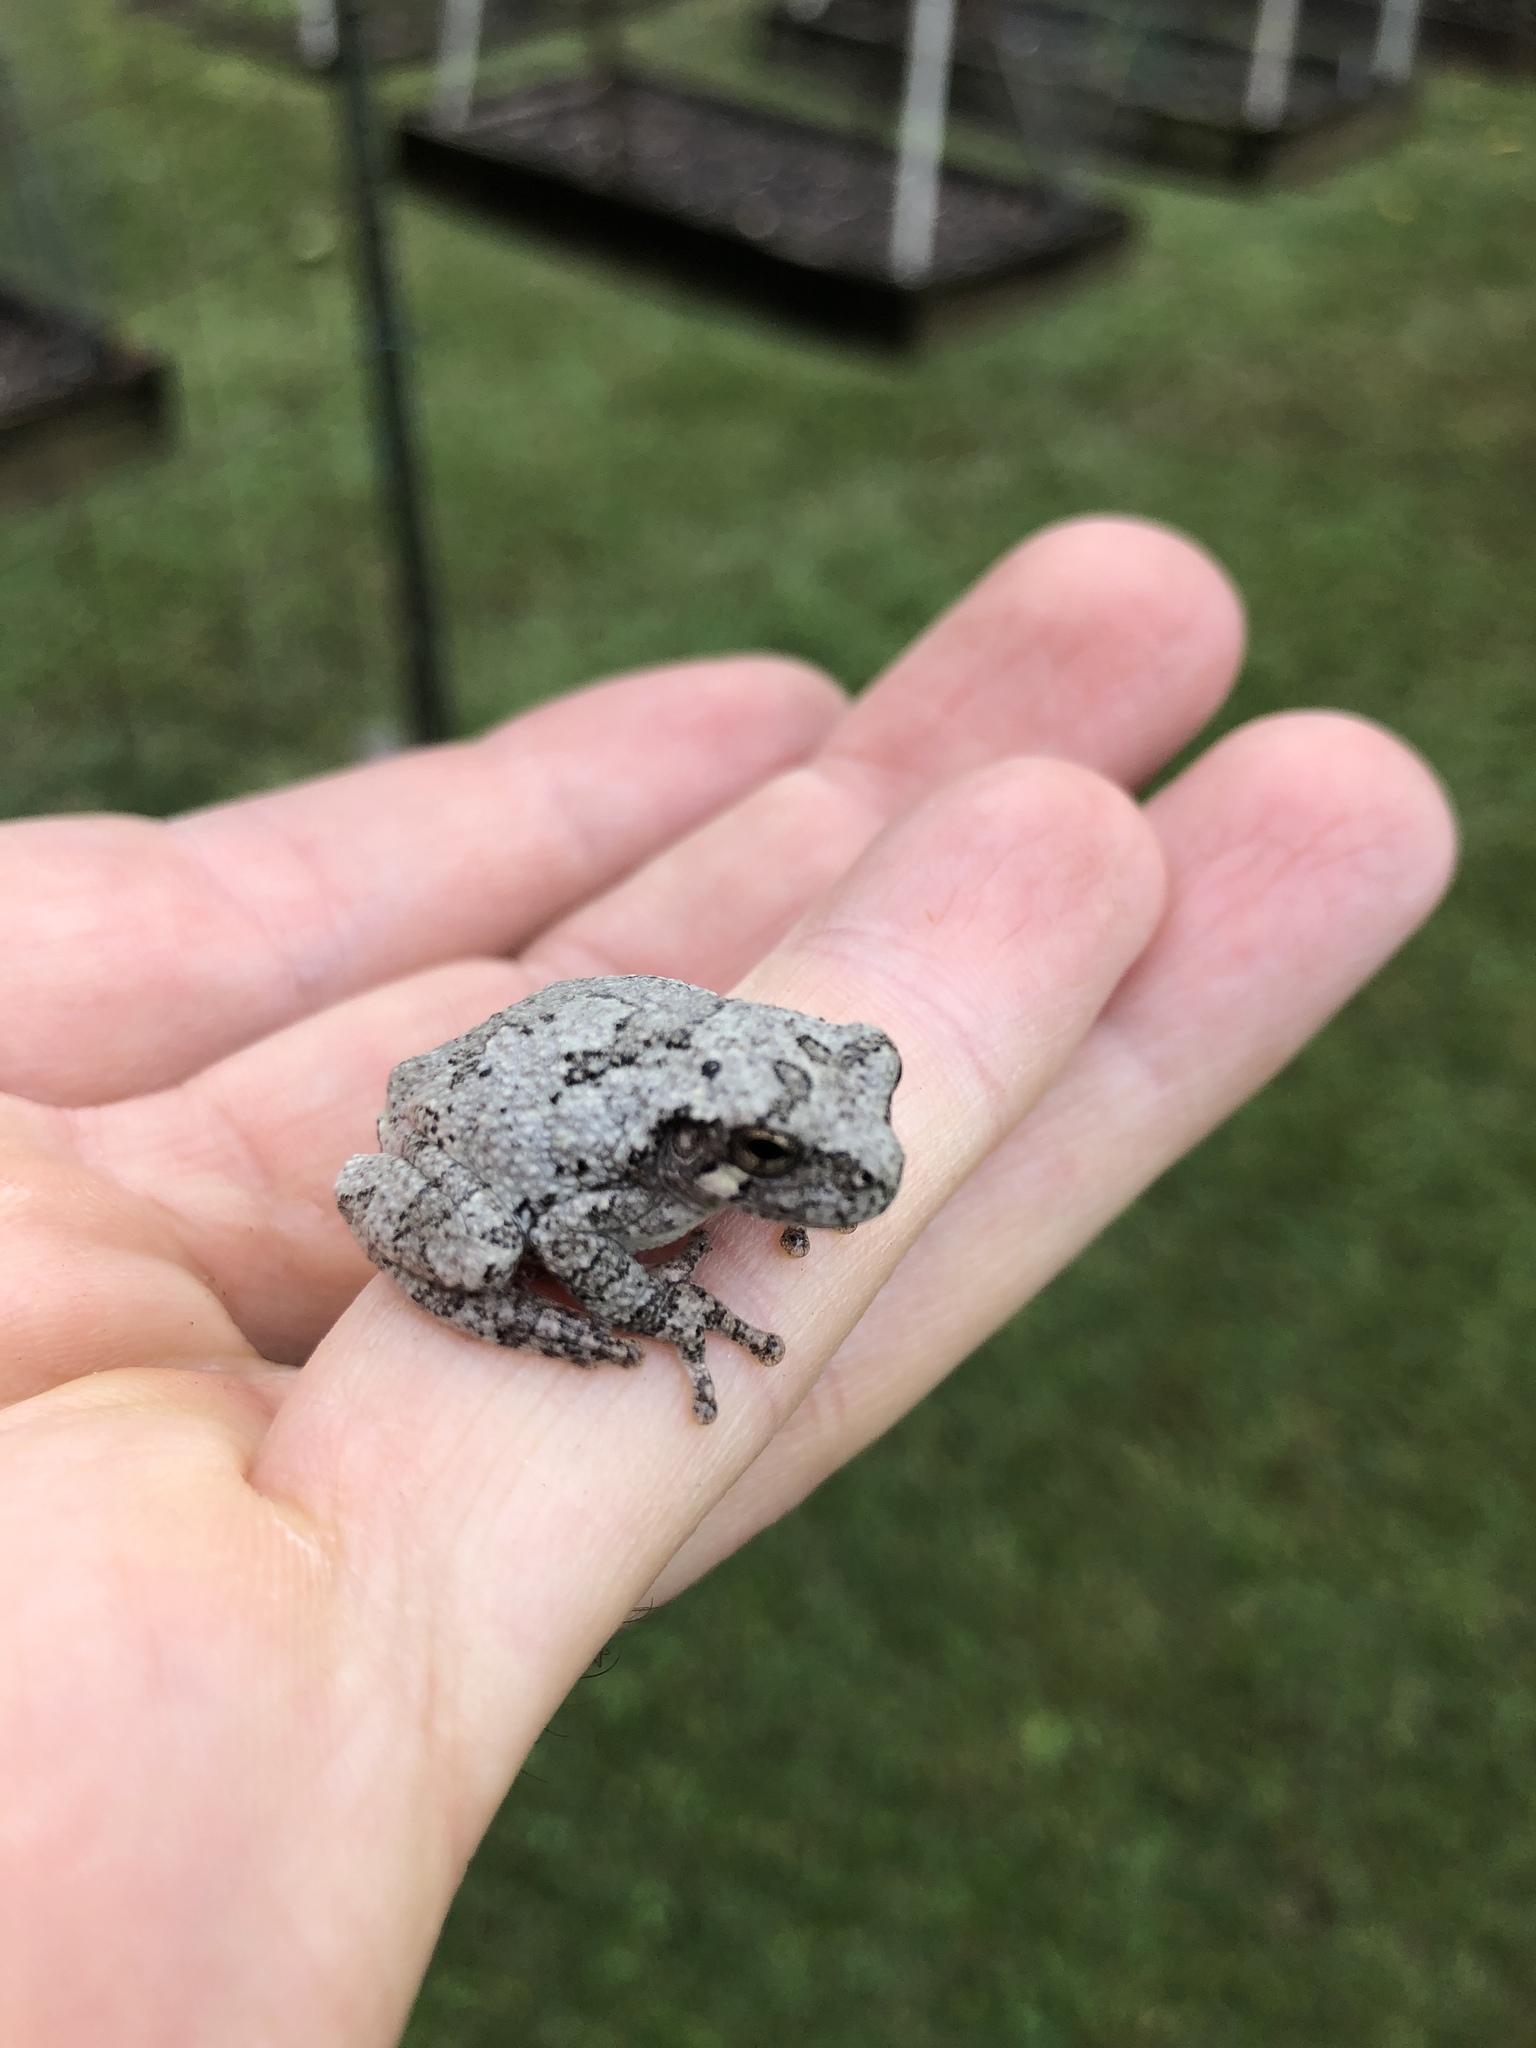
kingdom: Animalia
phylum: Chordata
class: Amphibia
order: Anura
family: Hylidae
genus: Dryophytes
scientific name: Dryophytes chrysoscelis
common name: Cope's gray treefrog
